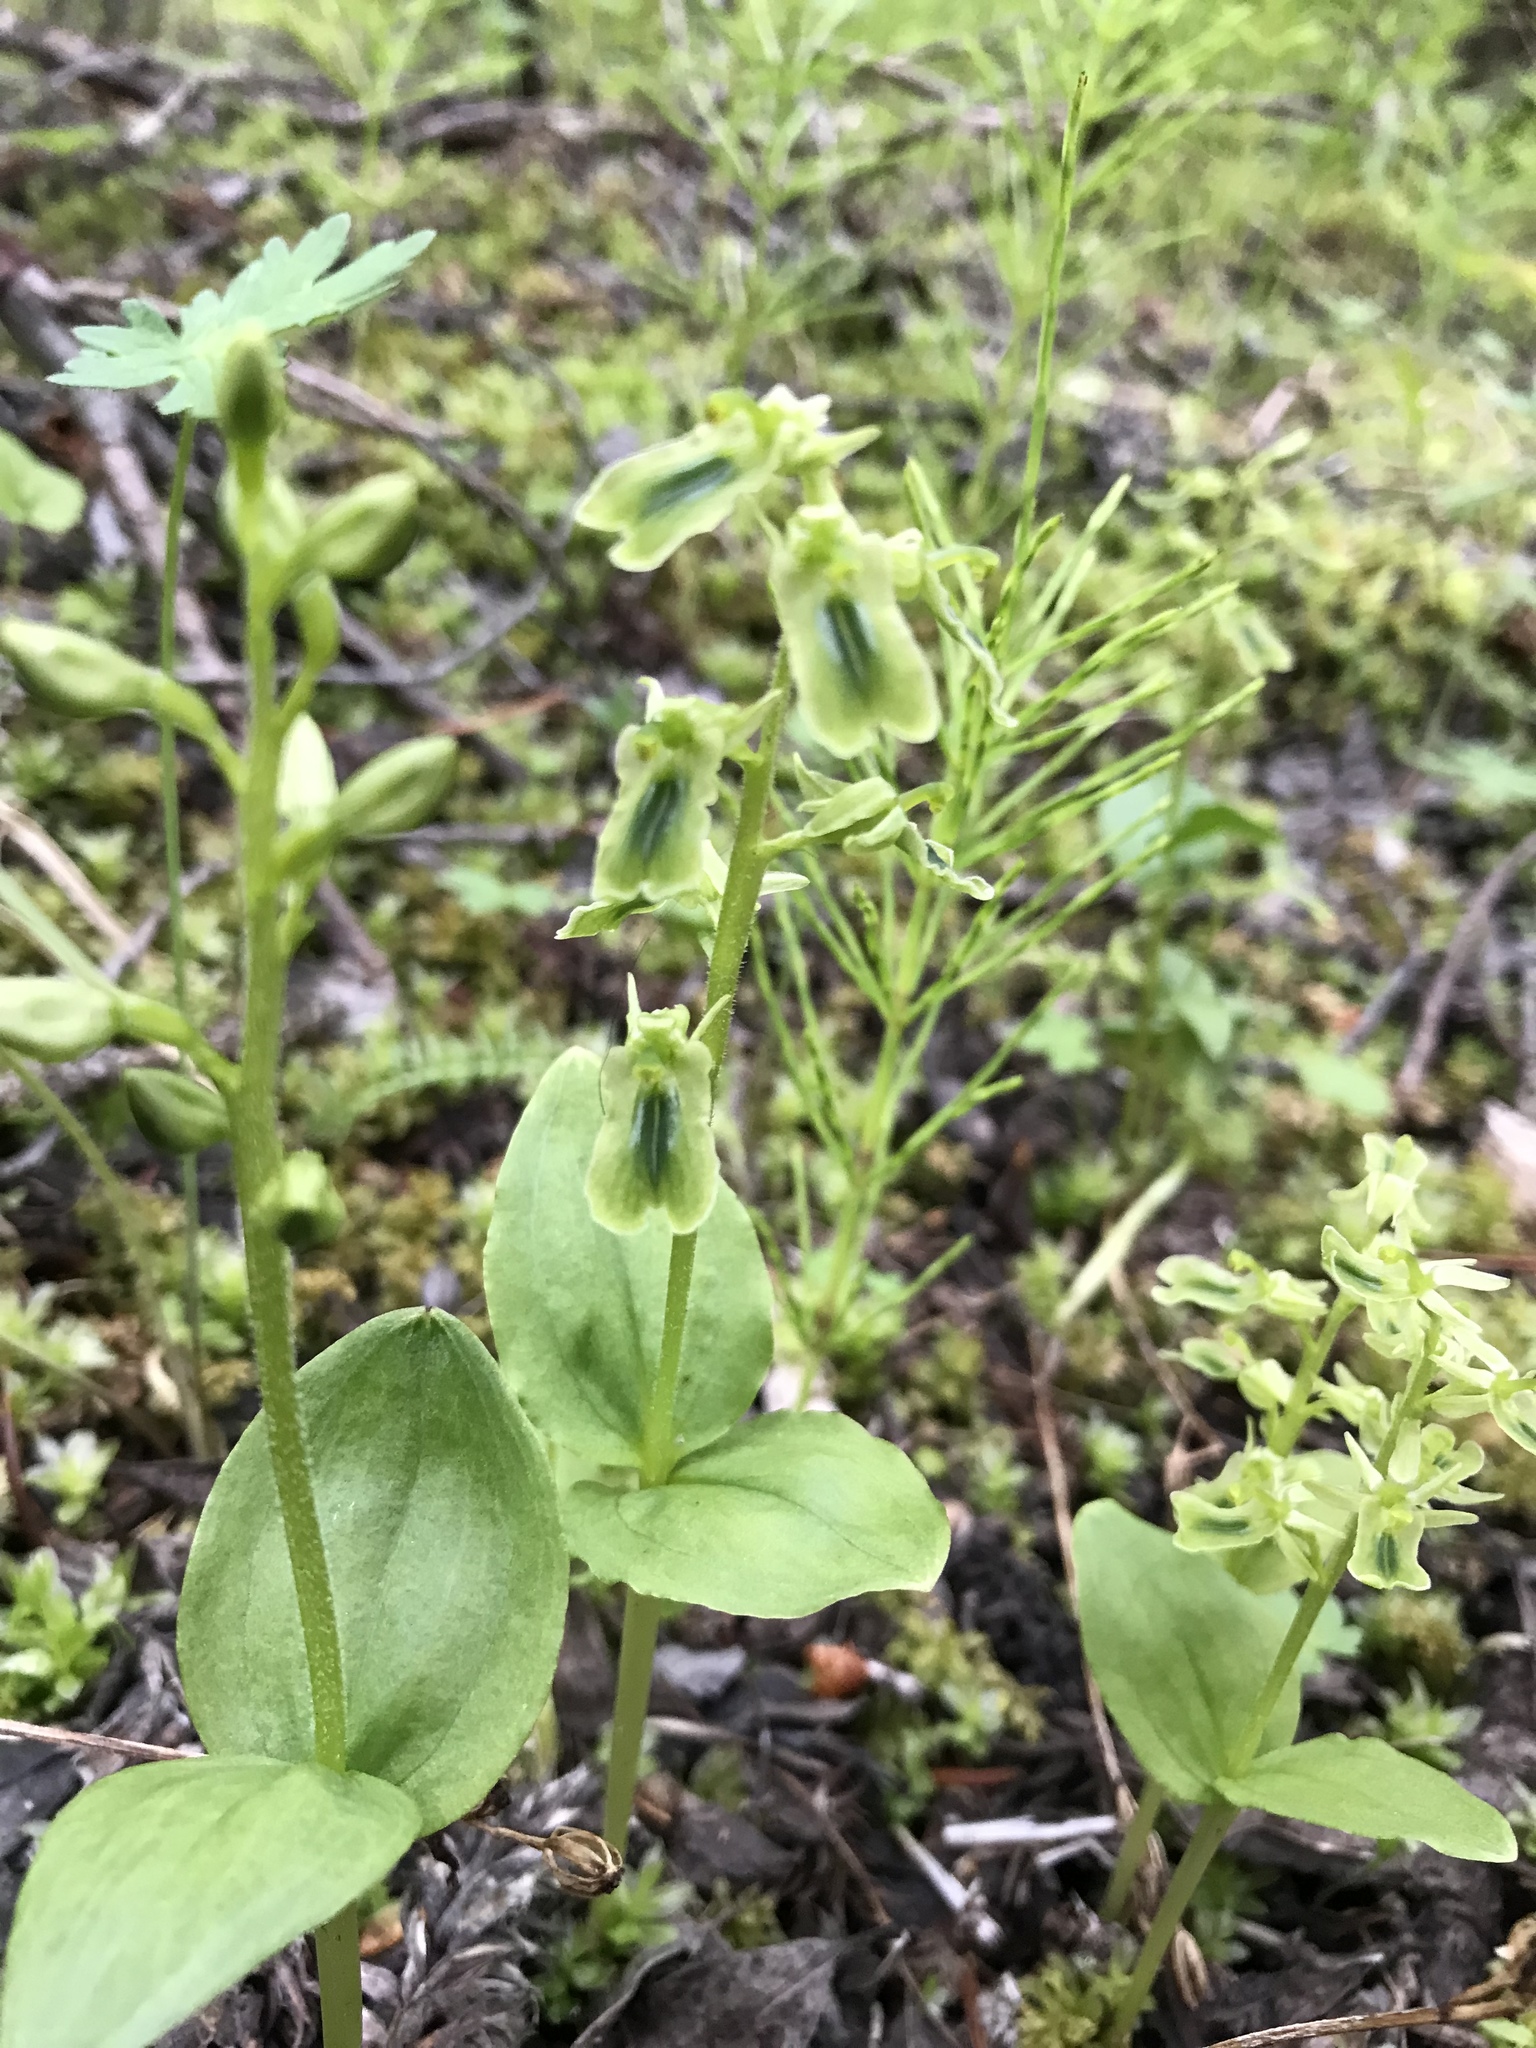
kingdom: Plantae
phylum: Tracheophyta
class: Liliopsida
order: Asparagales
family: Orchidaceae
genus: Neottia
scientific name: Neottia borealis
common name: Northern twayblade
